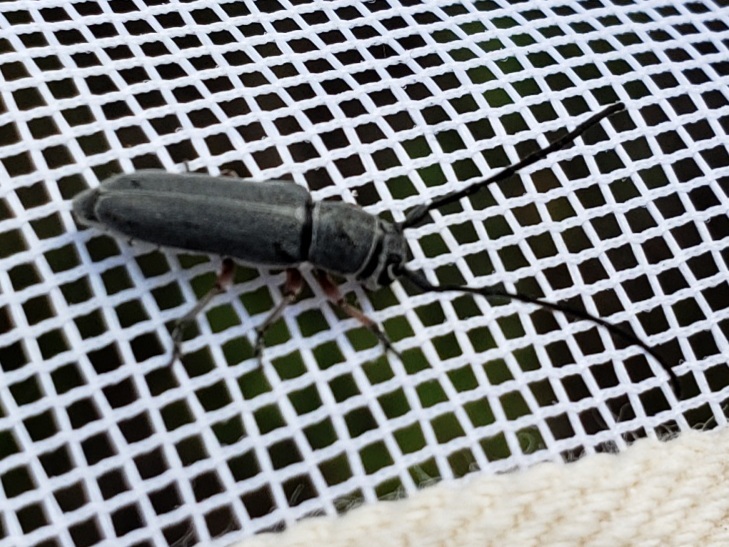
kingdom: Animalia
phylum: Arthropoda
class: Insecta
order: Coleoptera
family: Cerambycidae
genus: Mecas
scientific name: Mecas femoralis
